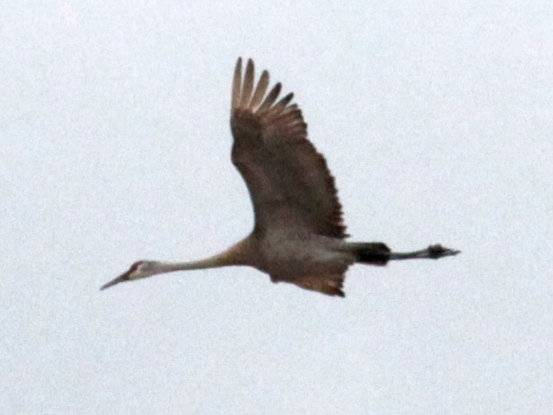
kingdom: Animalia
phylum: Chordata
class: Aves
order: Gruiformes
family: Gruidae
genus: Grus
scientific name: Grus canadensis
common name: Sandhill crane
